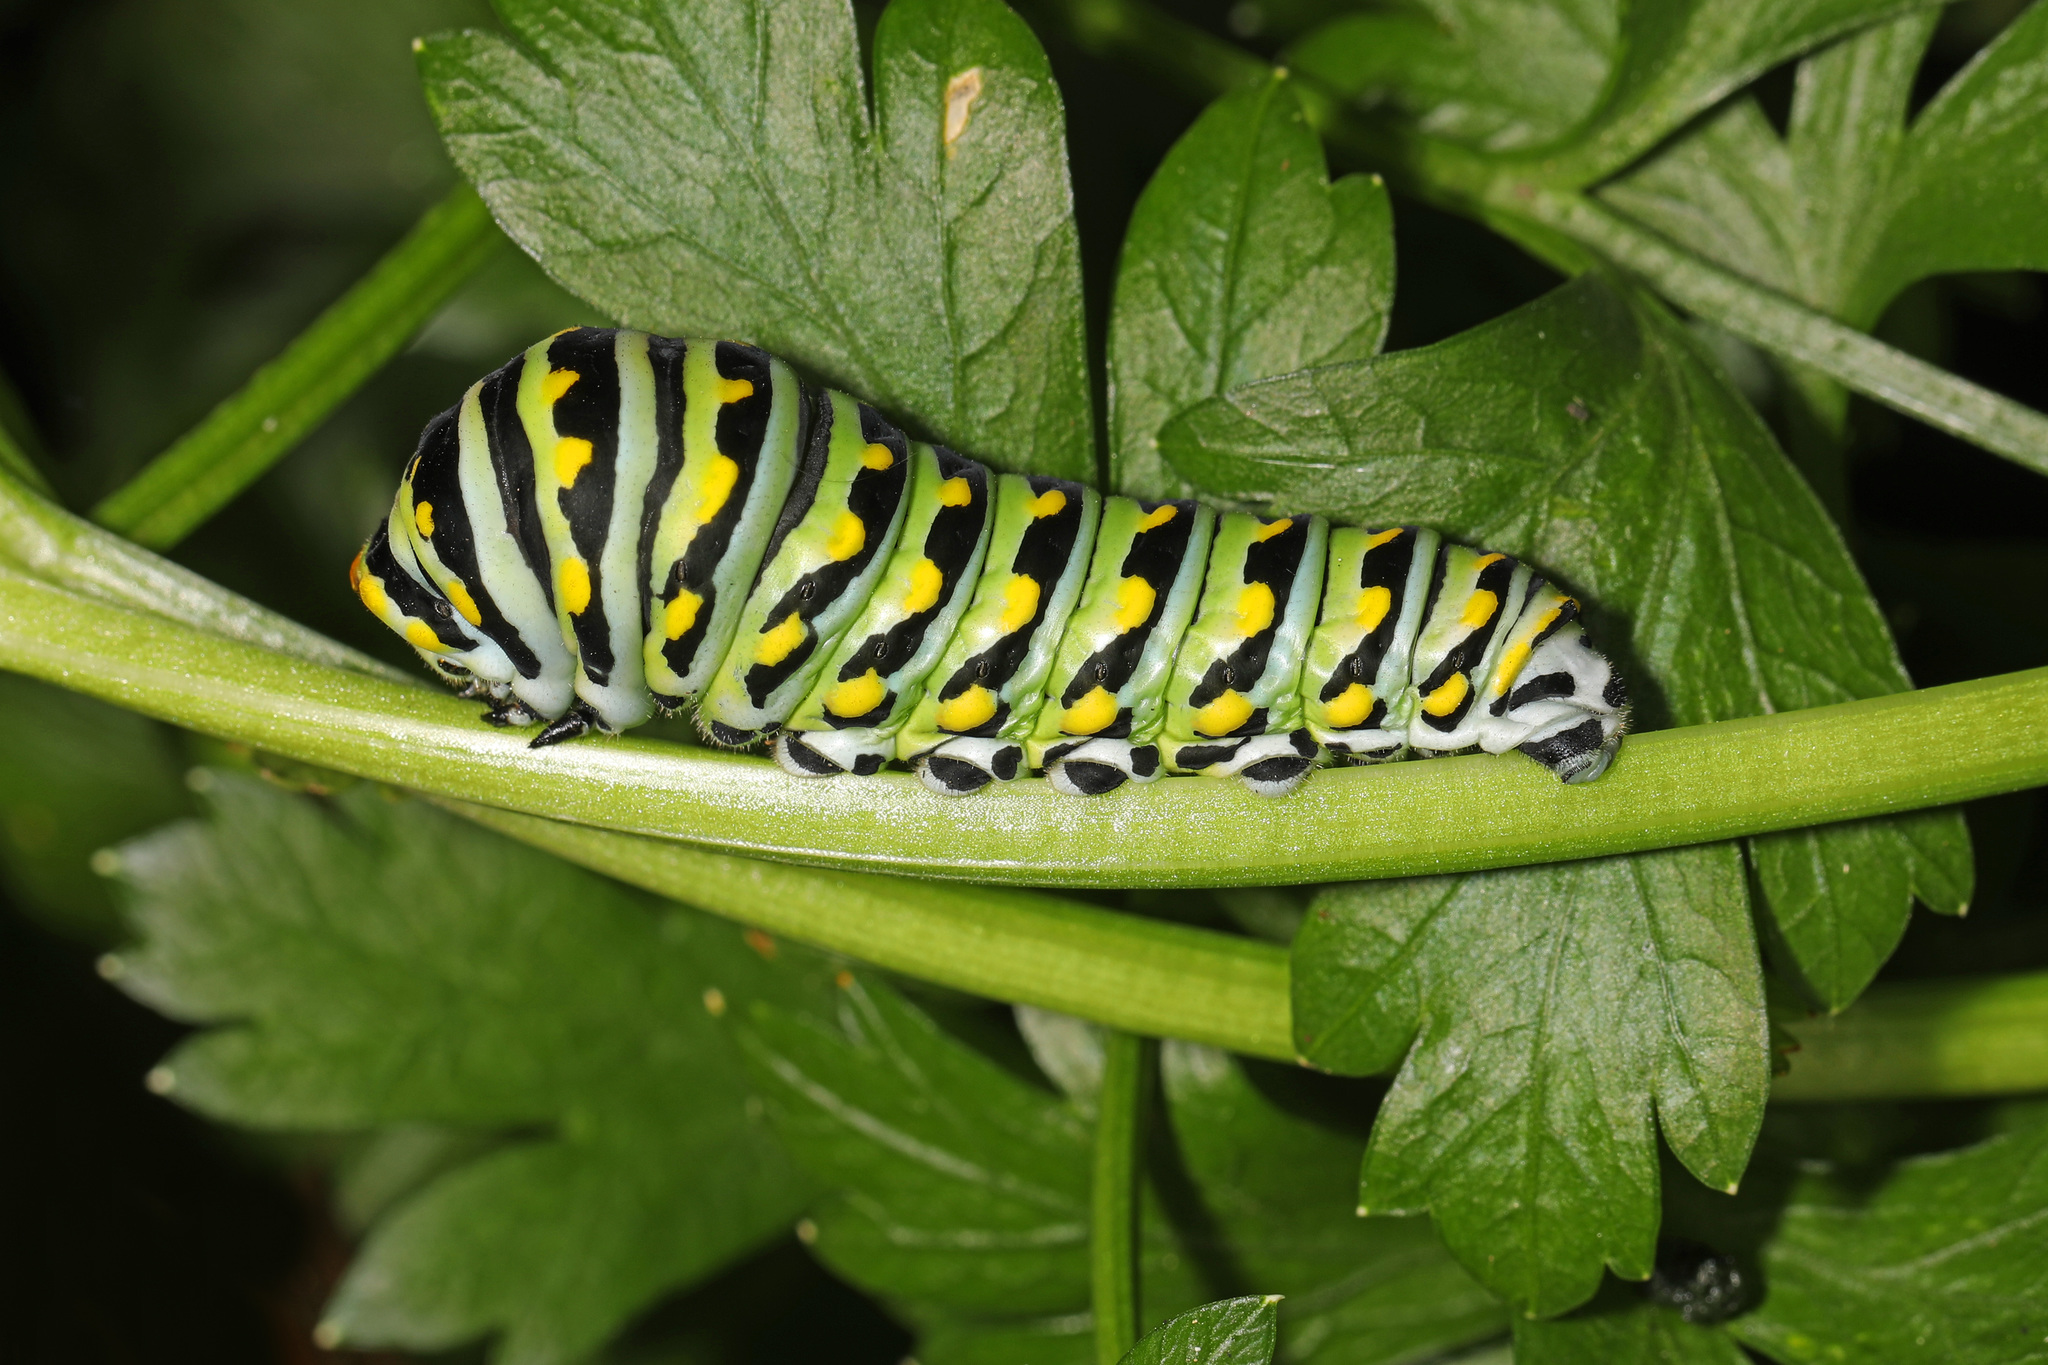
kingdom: Animalia
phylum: Arthropoda
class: Insecta
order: Lepidoptera
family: Papilionidae
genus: Papilio
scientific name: Papilio polyxenes
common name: Black swallowtail
